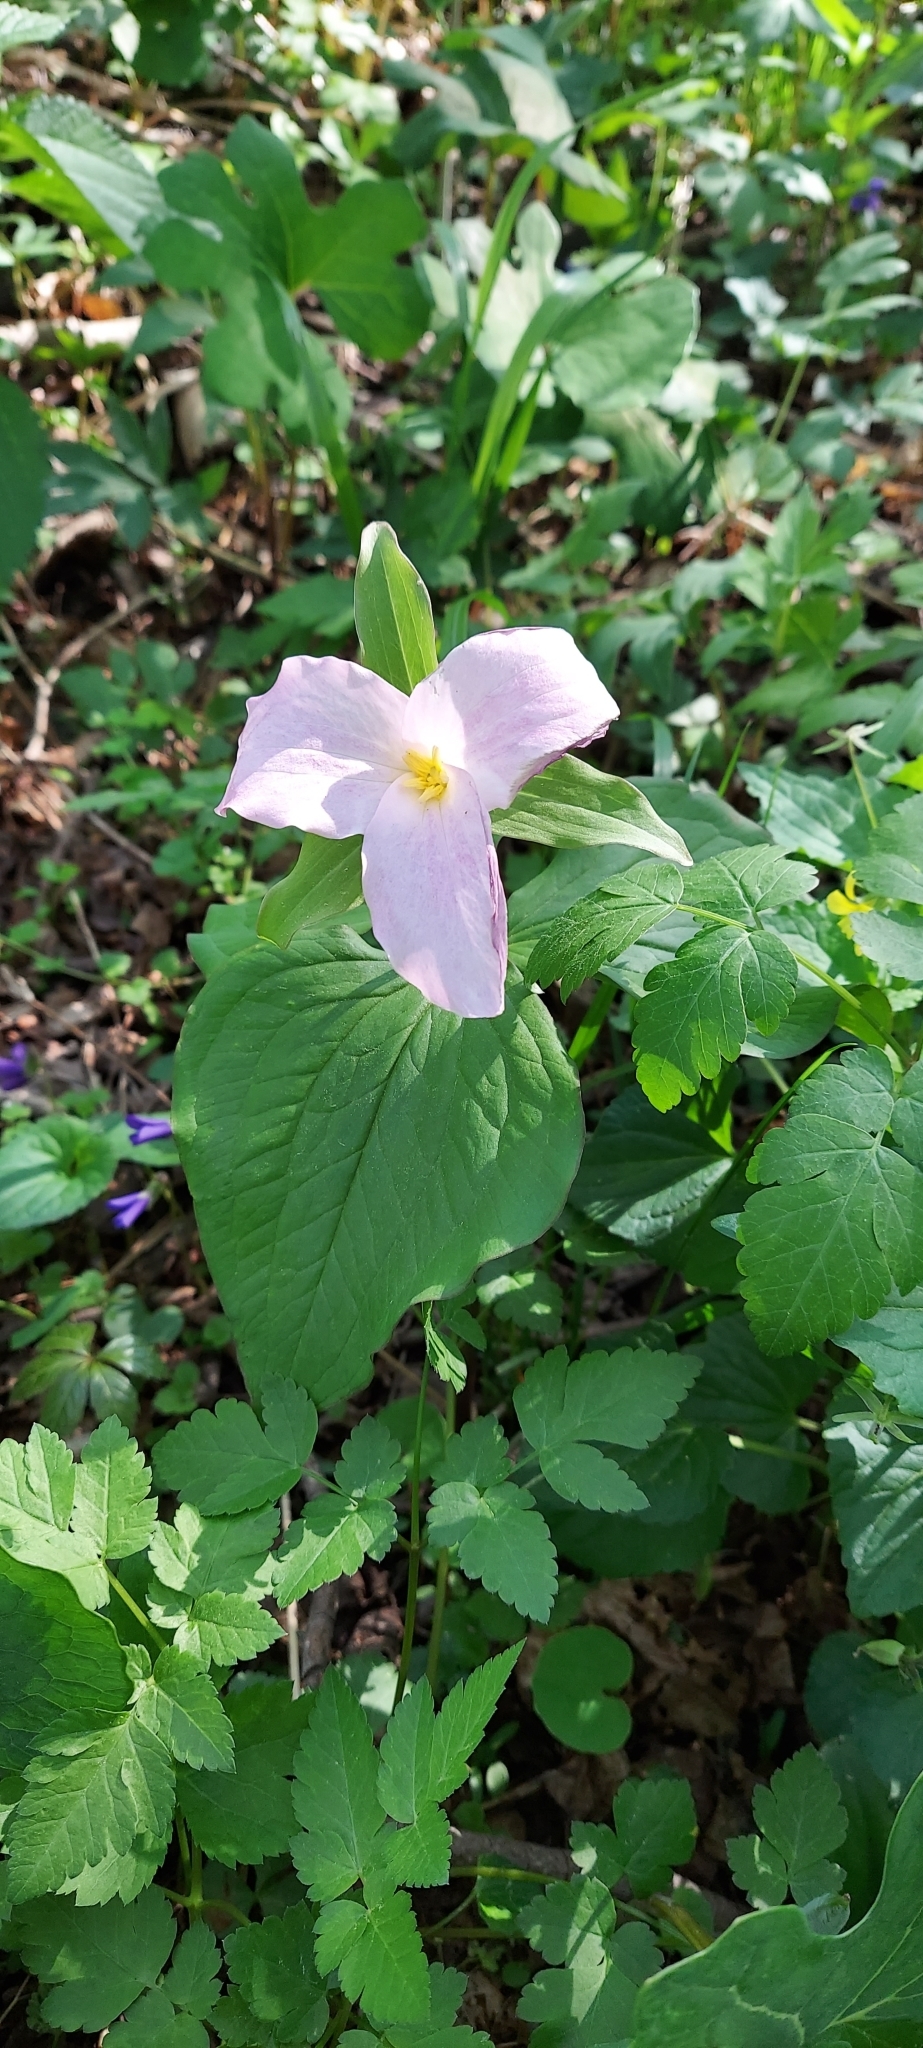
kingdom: Plantae
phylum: Tracheophyta
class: Liliopsida
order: Liliales
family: Melanthiaceae
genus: Trillium
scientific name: Trillium grandiflorum
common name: Great white trillium
